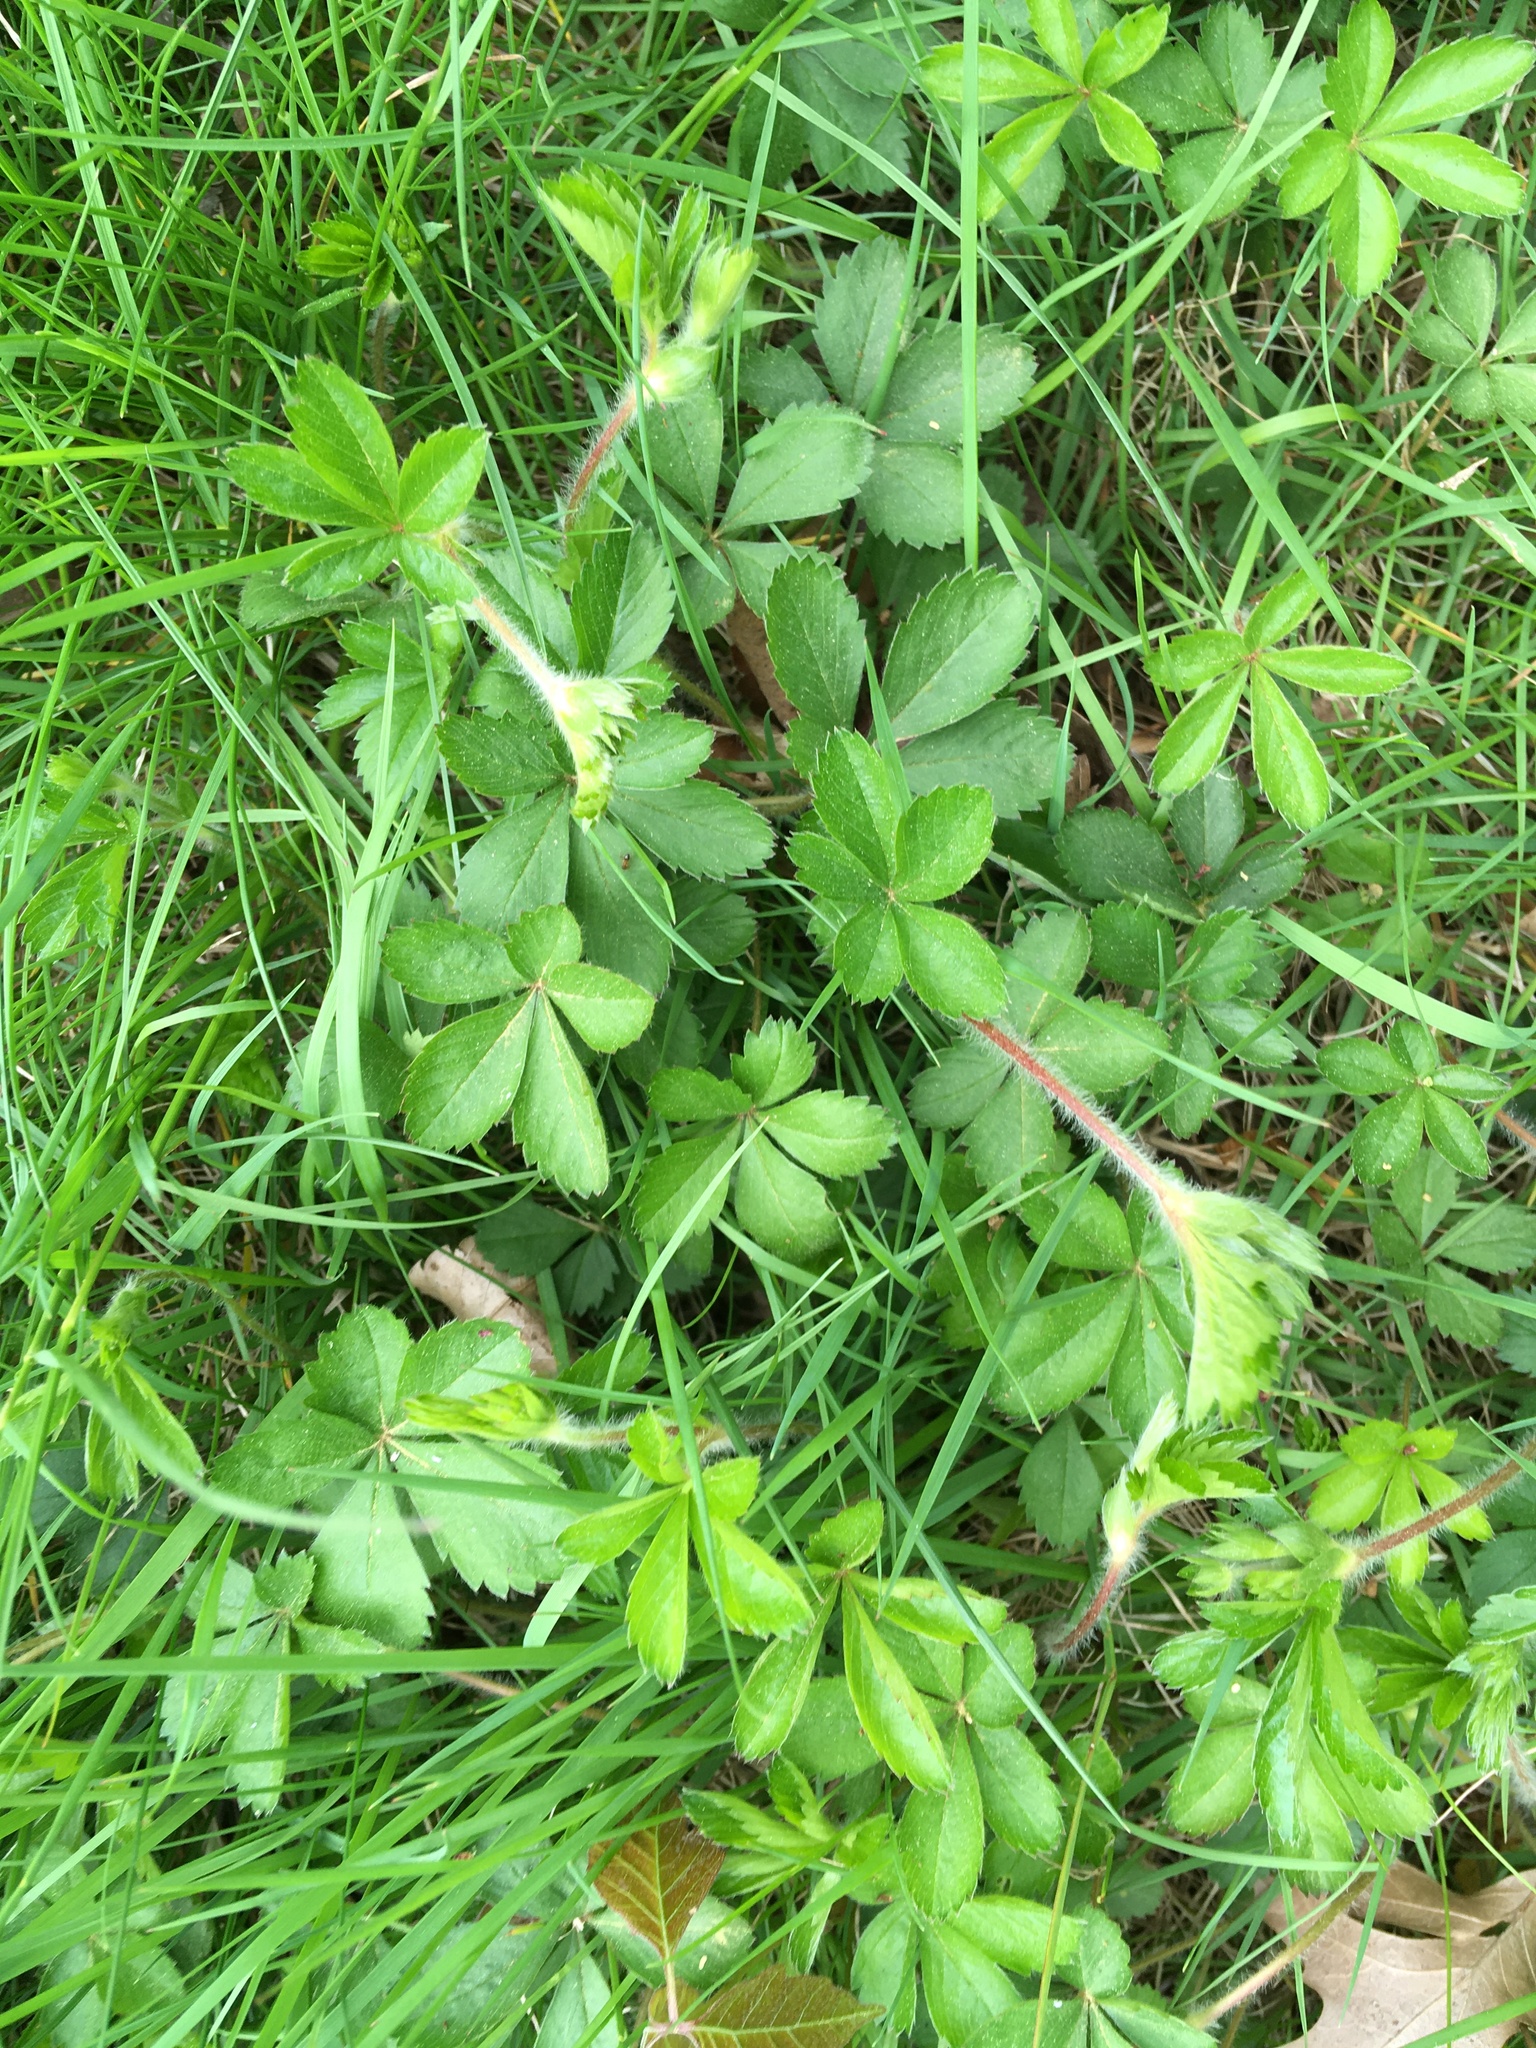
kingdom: Plantae
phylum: Tracheophyta
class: Magnoliopsida
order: Rosales
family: Rosaceae
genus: Potentilla
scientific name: Potentilla simplex
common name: Old field cinquefoil
